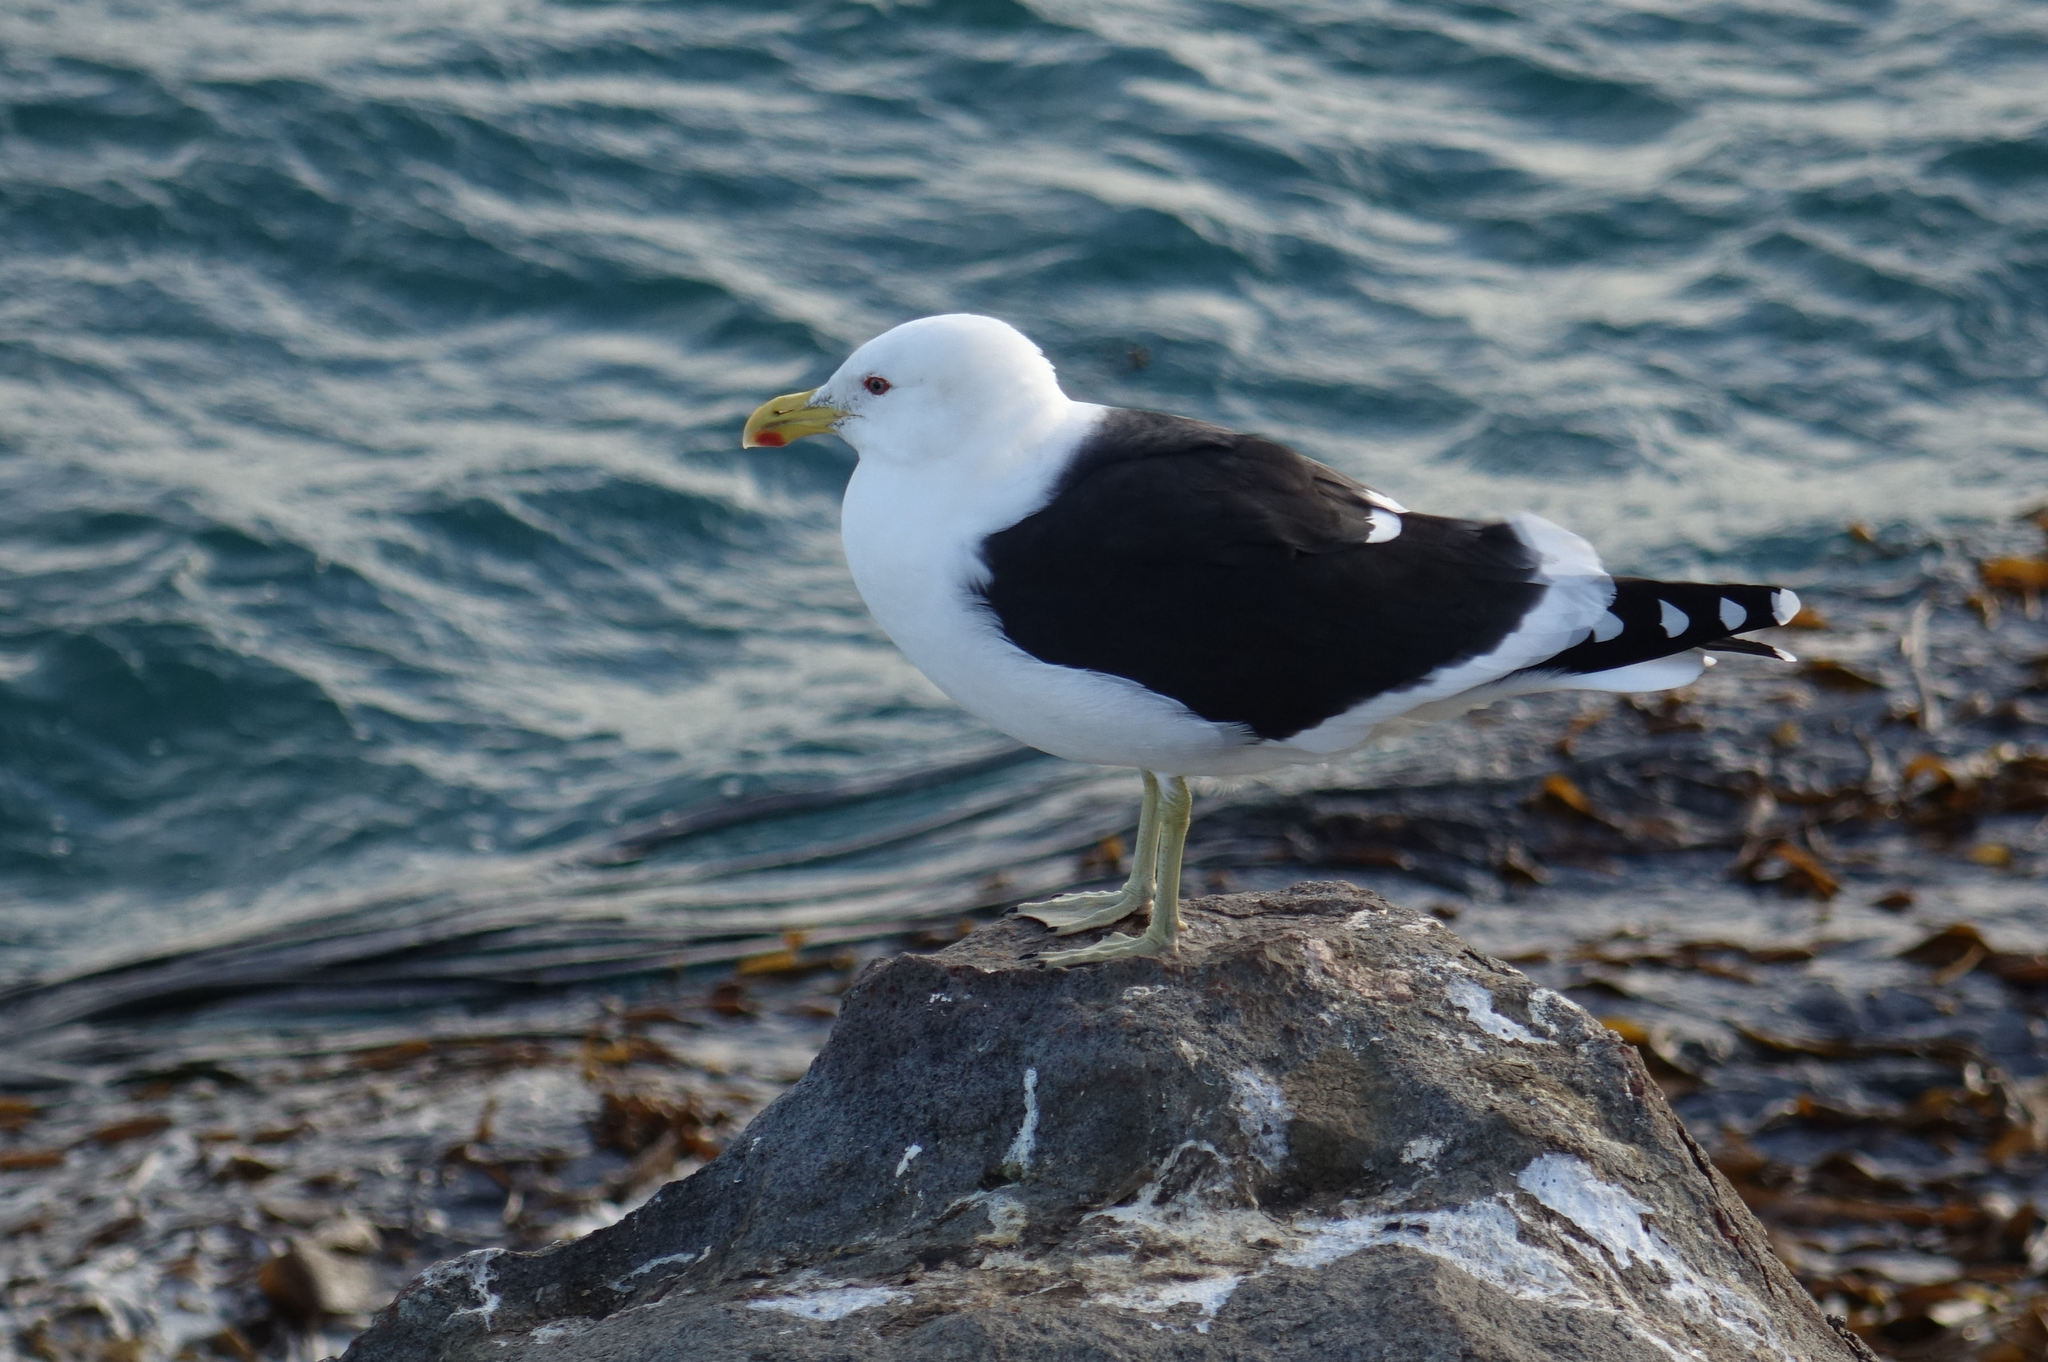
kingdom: Animalia
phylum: Chordata
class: Aves
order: Charadriiformes
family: Laridae
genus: Larus
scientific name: Larus dominicanus
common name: Kelp gull
